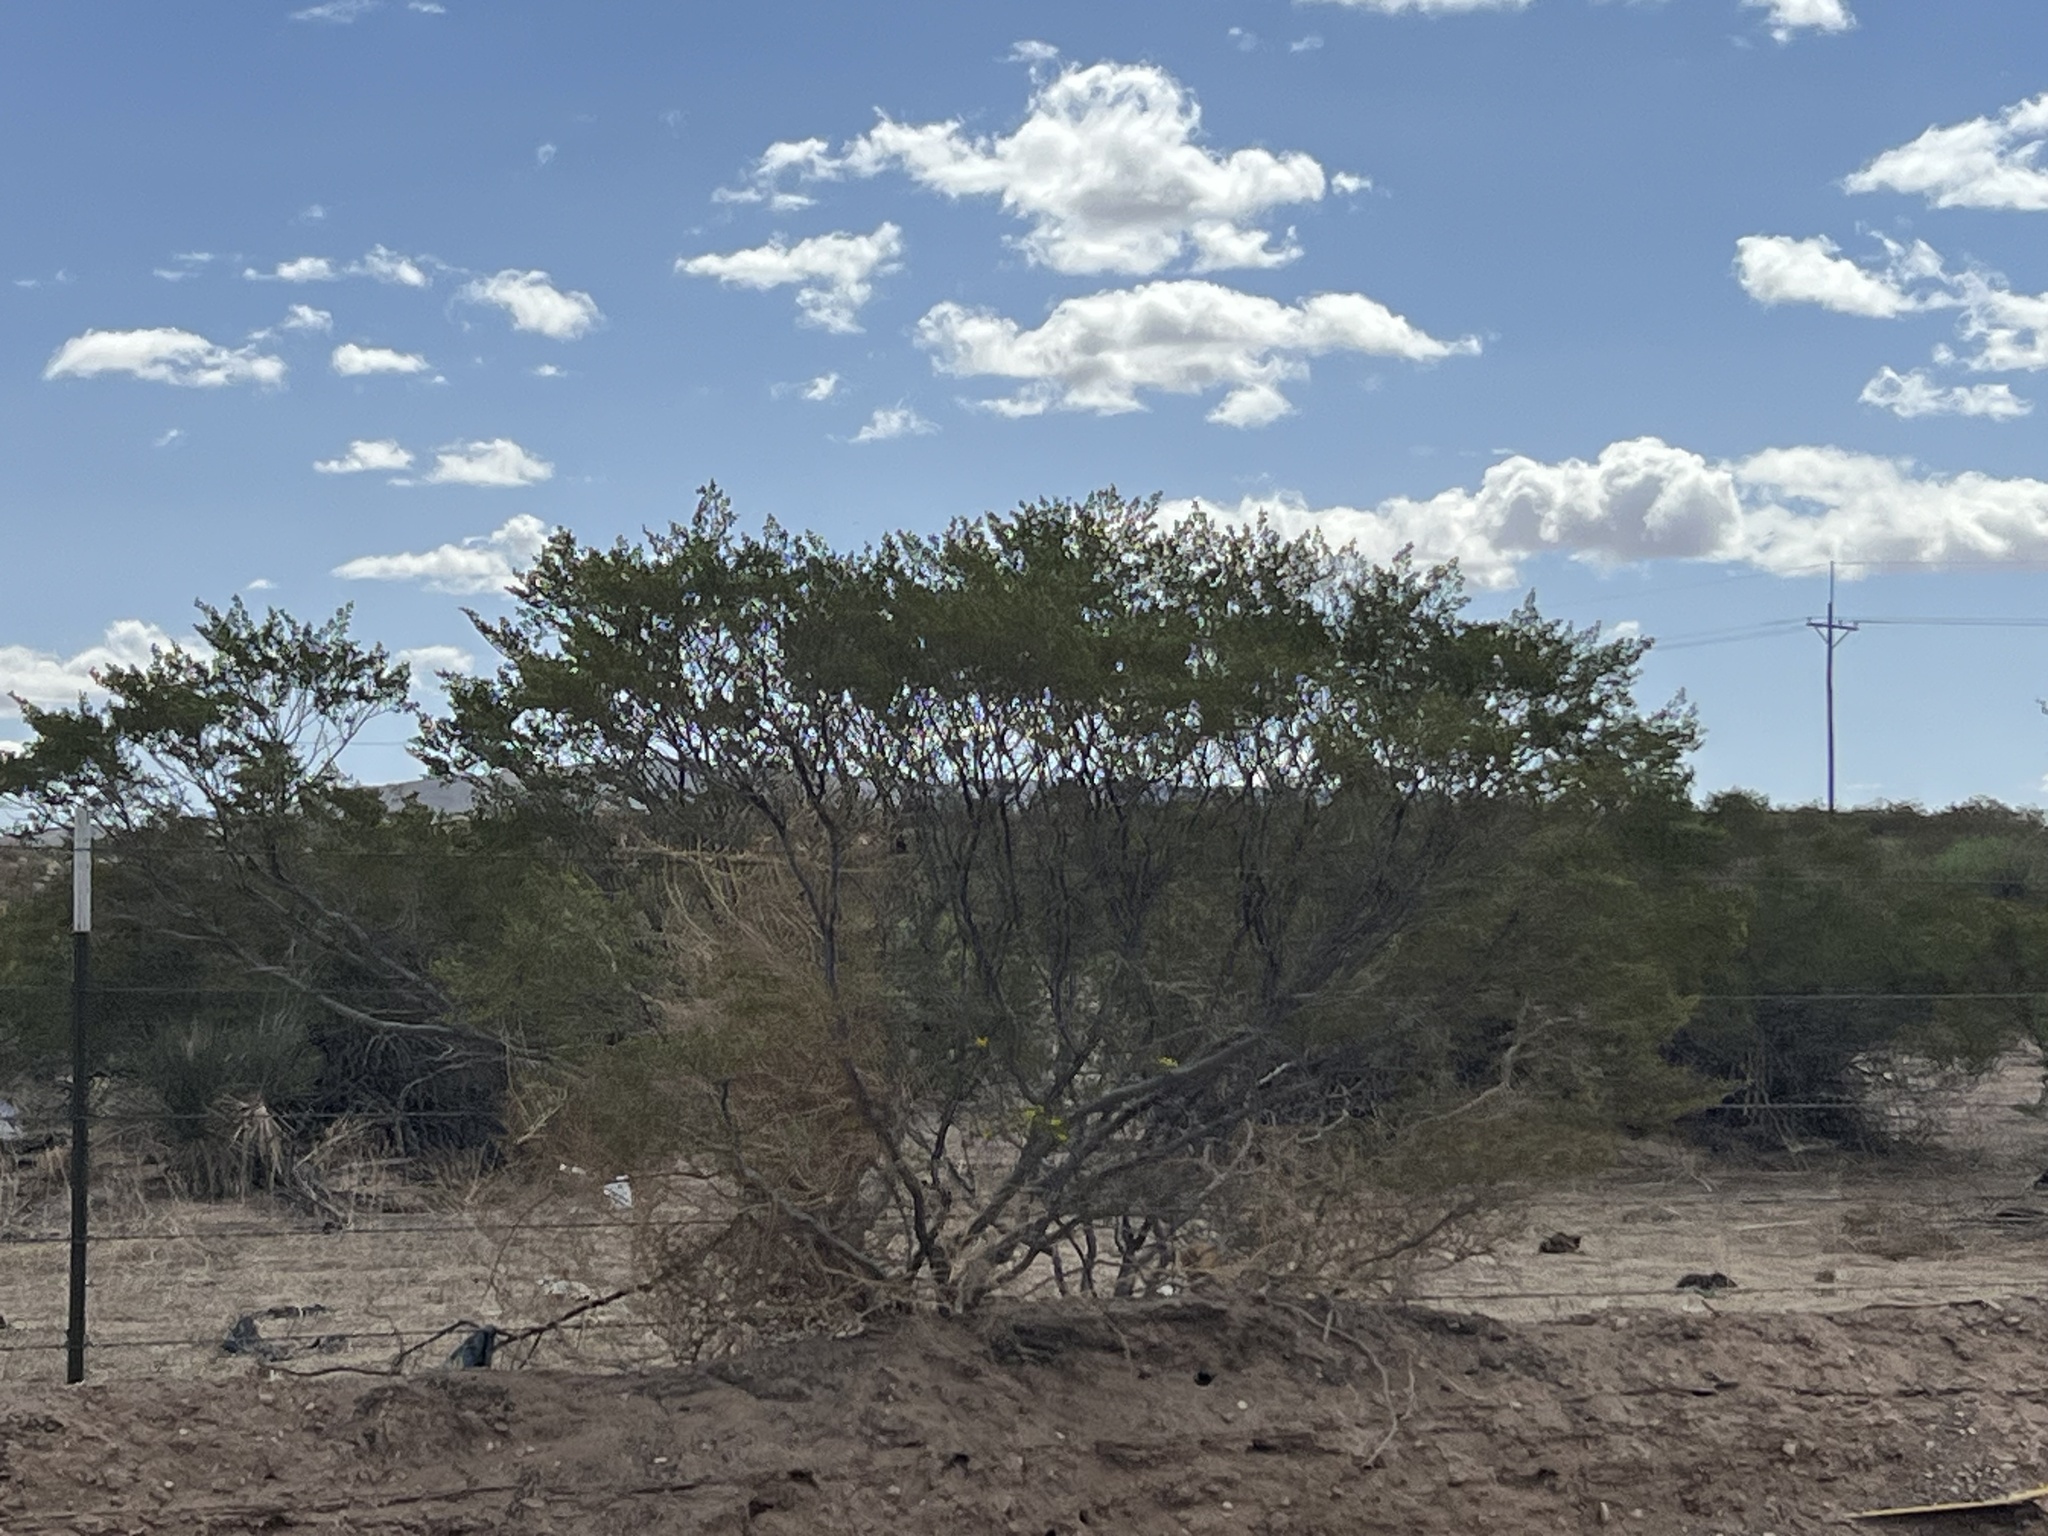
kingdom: Plantae
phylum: Tracheophyta
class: Magnoliopsida
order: Zygophyllales
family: Zygophyllaceae
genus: Larrea
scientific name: Larrea tridentata
